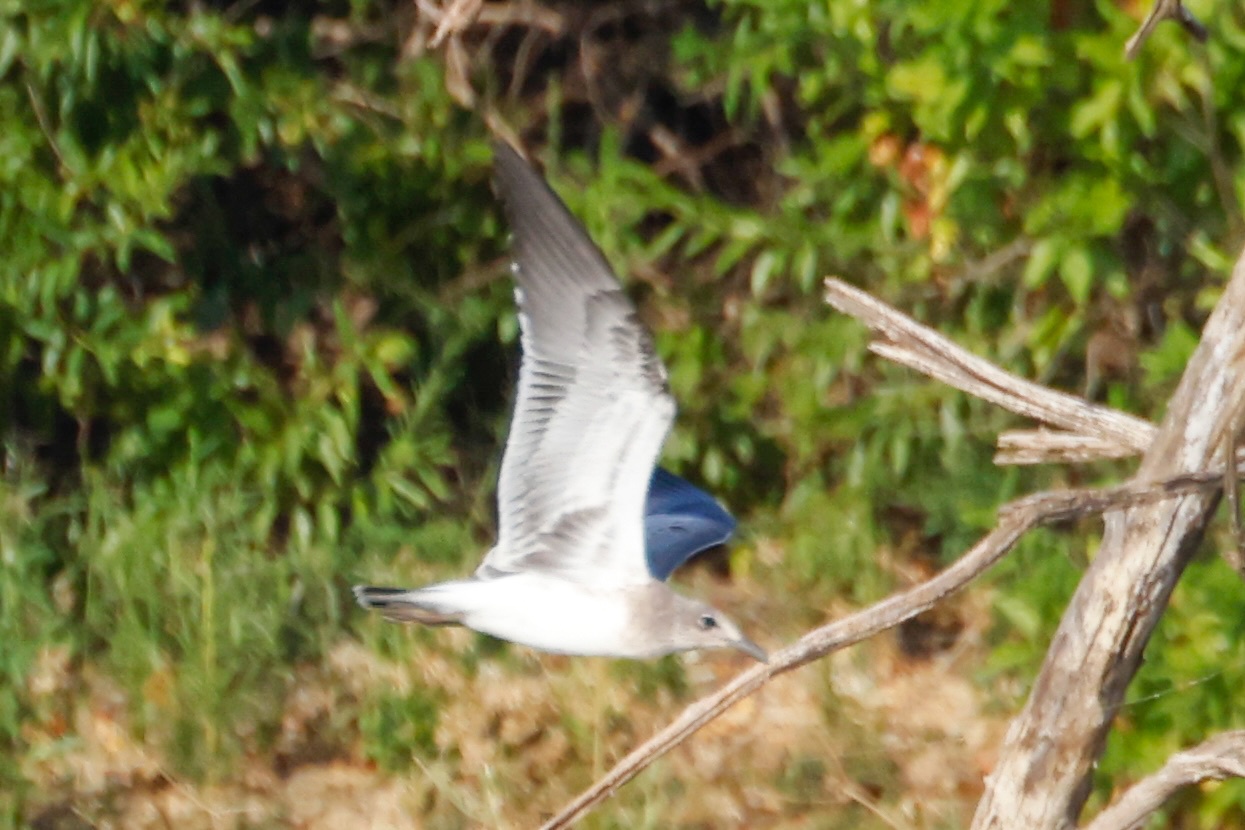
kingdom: Animalia
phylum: Chordata
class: Aves
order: Charadriiformes
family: Laridae
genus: Leucophaeus
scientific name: Leucophaeus atricilla
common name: Laughing gull
